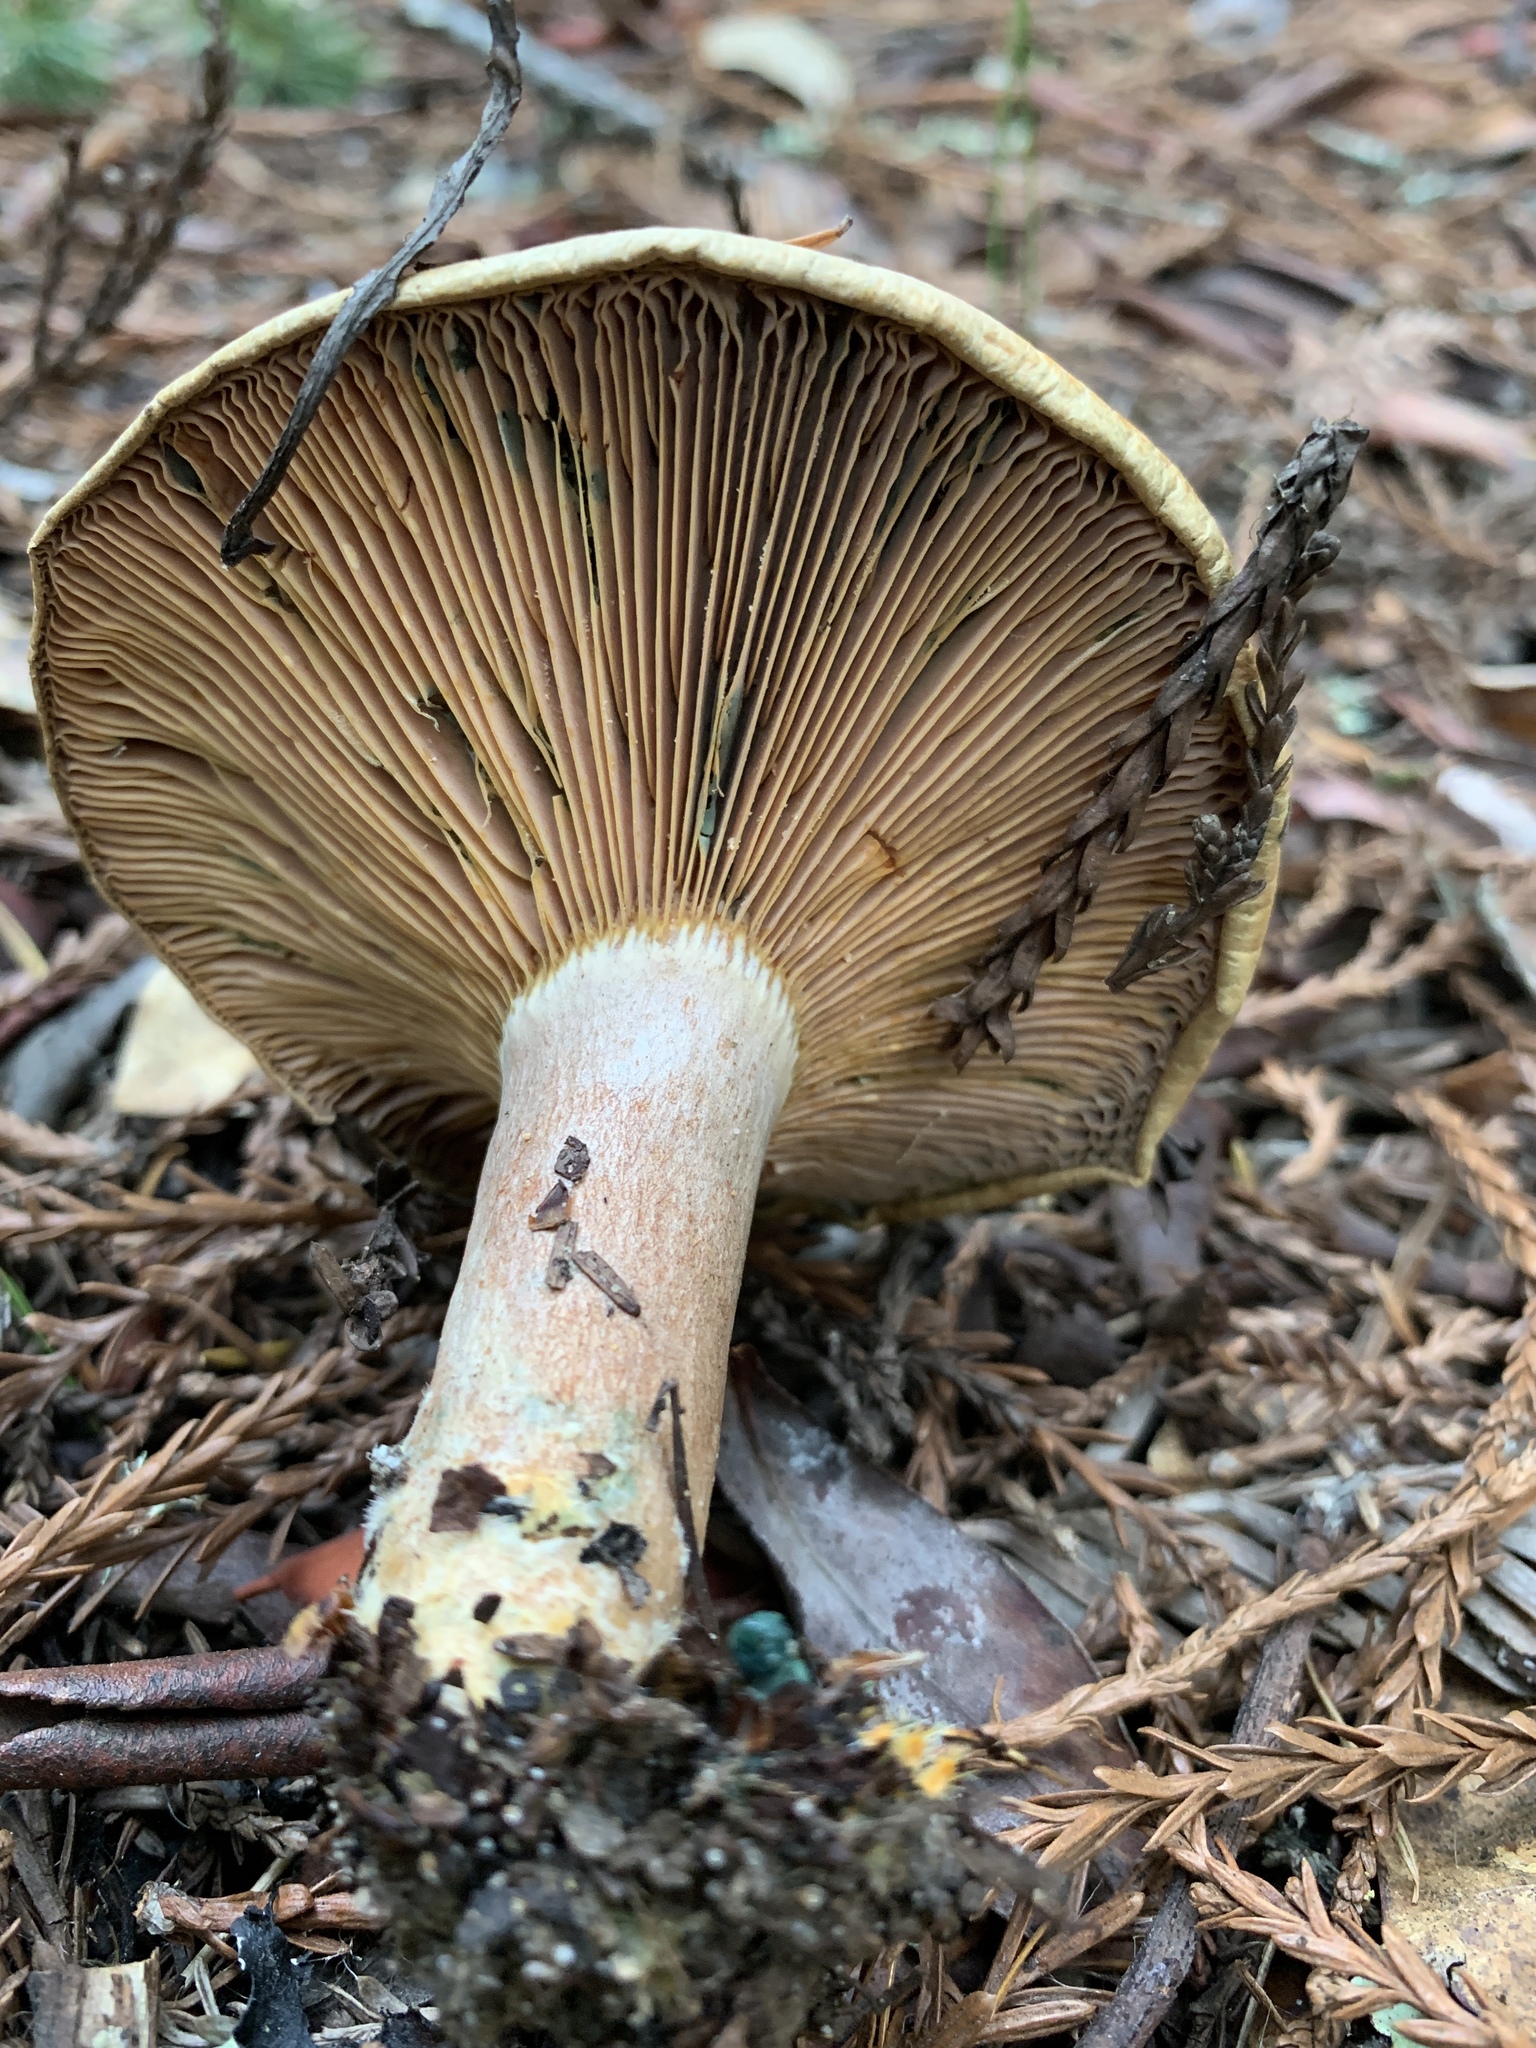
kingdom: Fungi
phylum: Basidiomycota
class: Agaricomycetes
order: Russulales
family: Russulaceae
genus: Lactarius
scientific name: Lactarius deliciosus
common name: Saffron milk-cap
